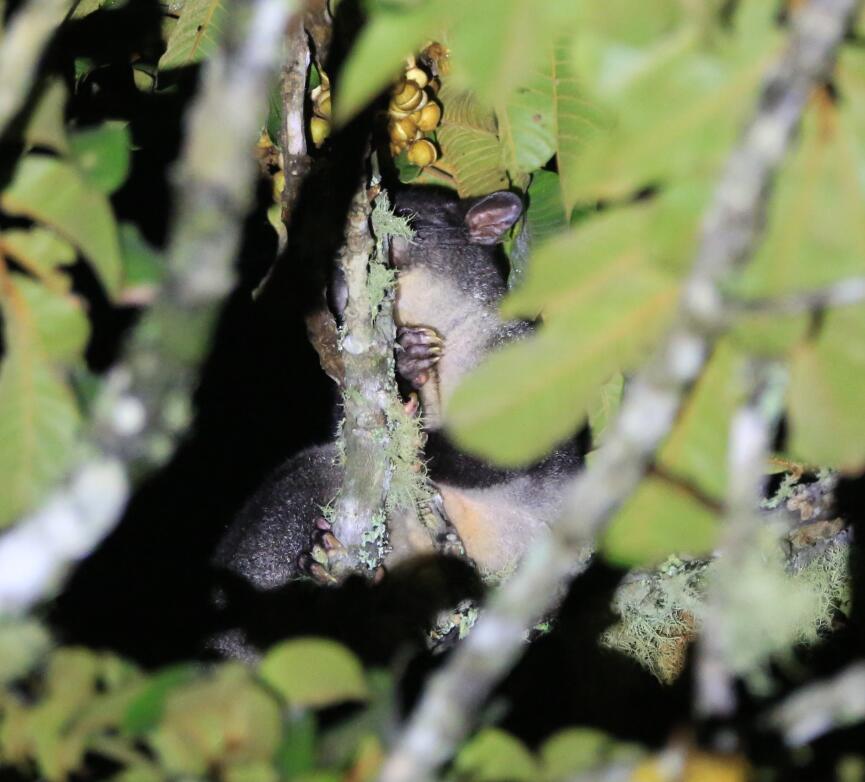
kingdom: Animalia
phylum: Chordata
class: Mammalia
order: Diprotodontia
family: Phalangeridae
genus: Trichosurus
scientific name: Trichosurus caninus
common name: Short-eared possum
